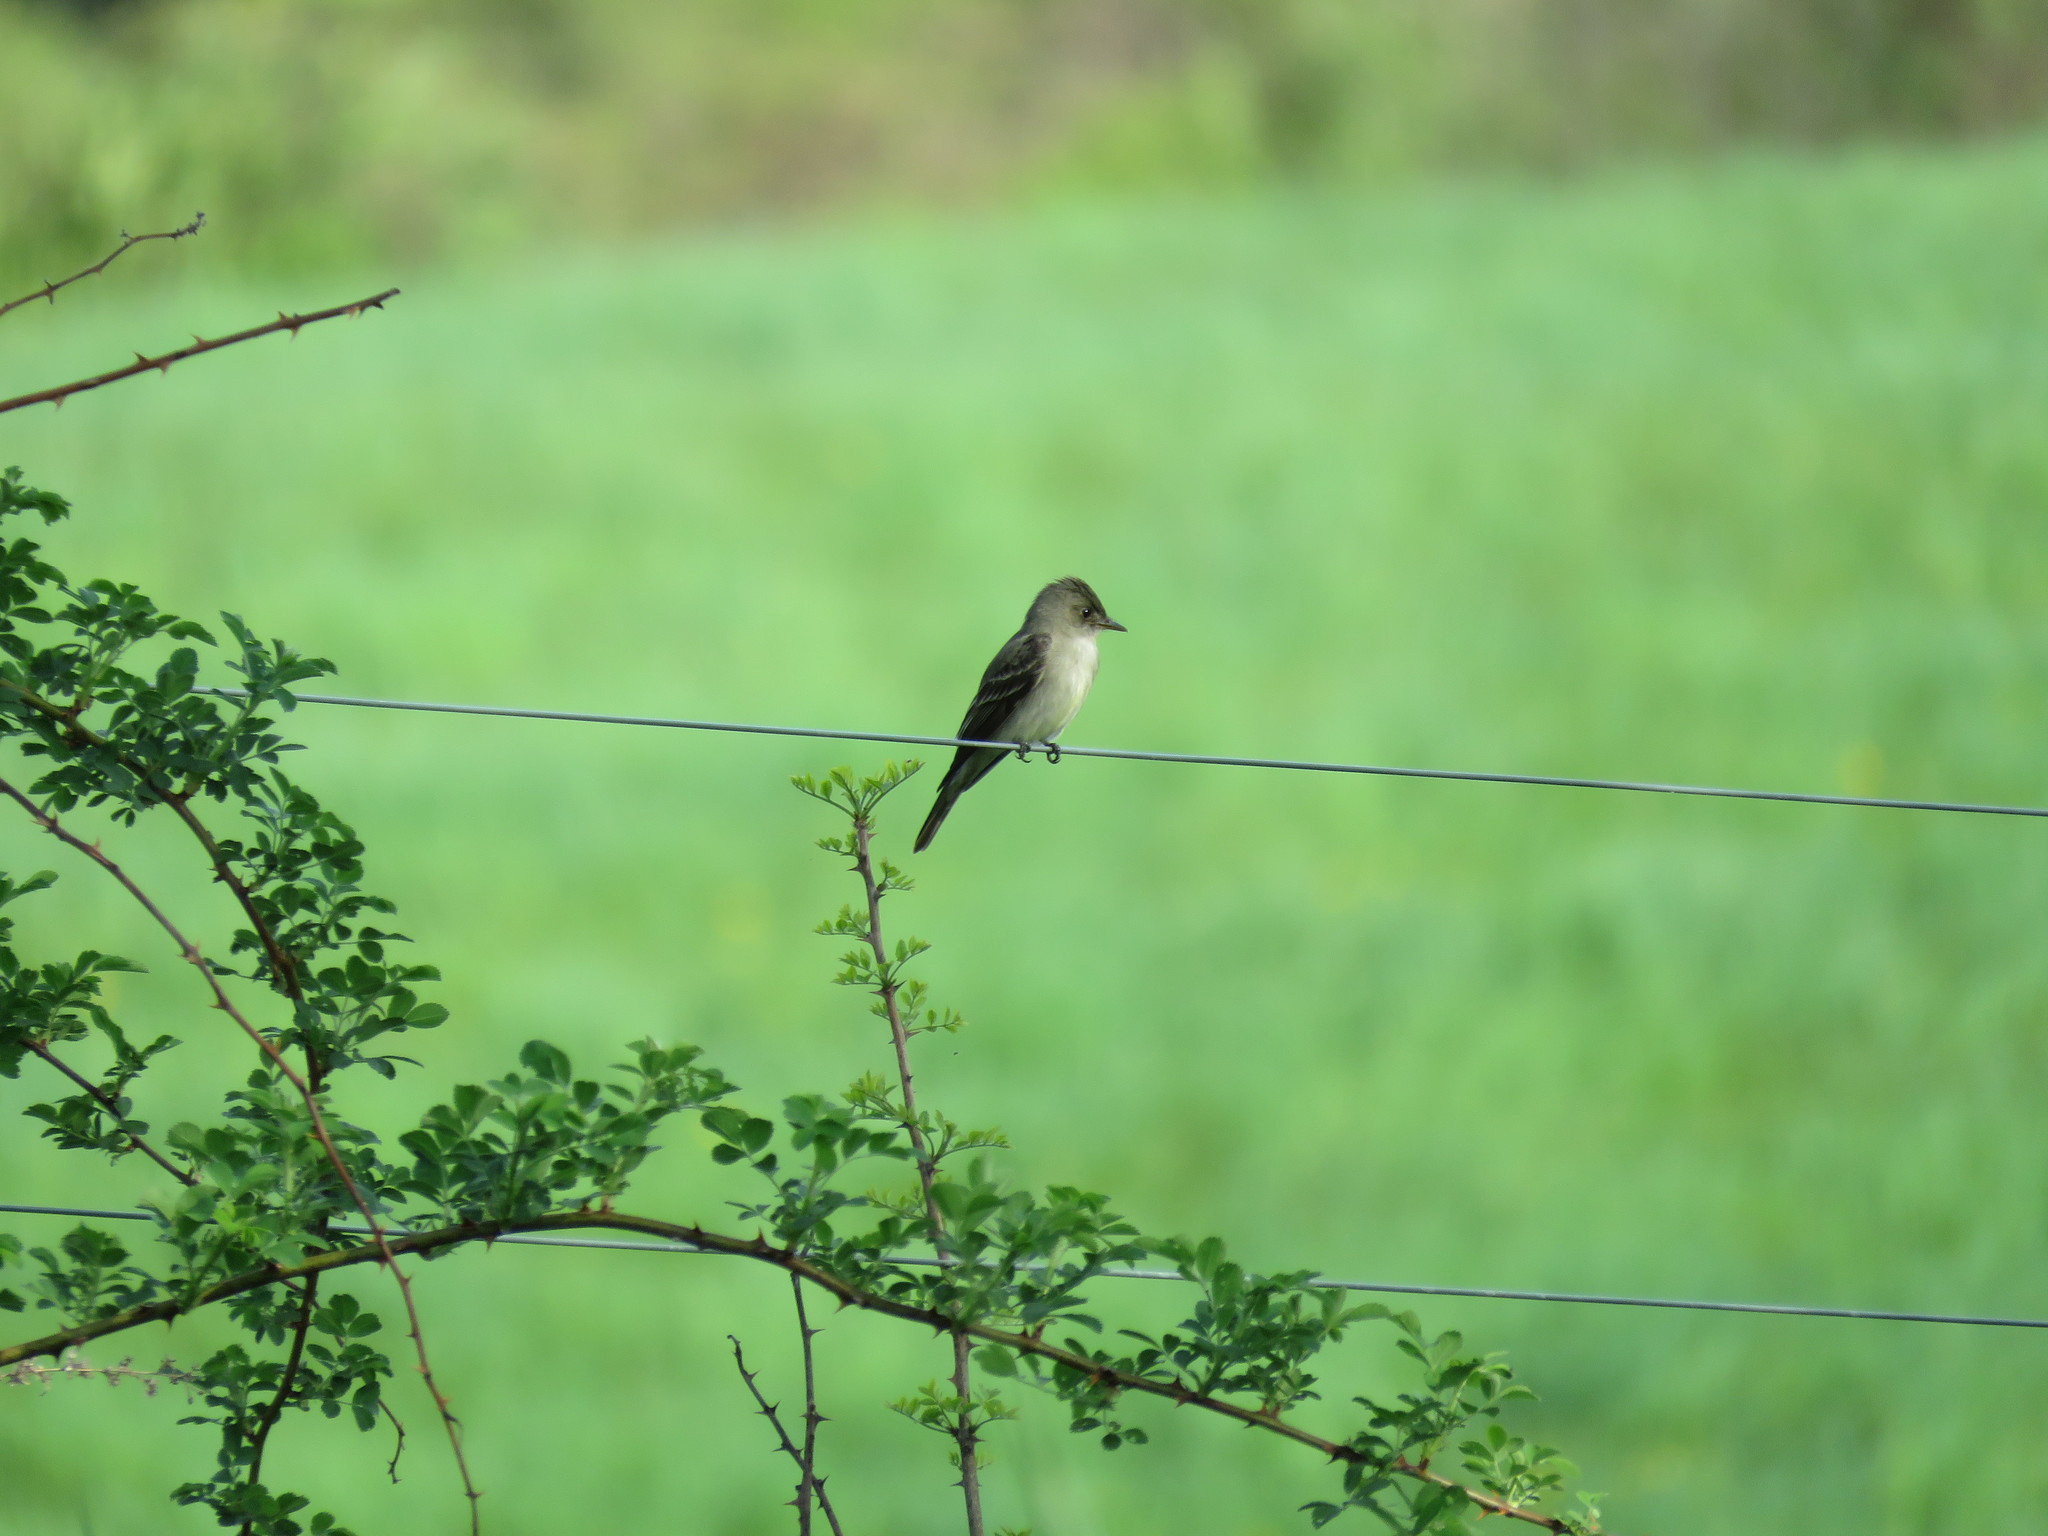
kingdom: Animalia
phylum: Chordata
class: Aves
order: Passeriformes
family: Tyrannidae
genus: Contopus
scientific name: Contopus virens
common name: Eastern wood-pewee
